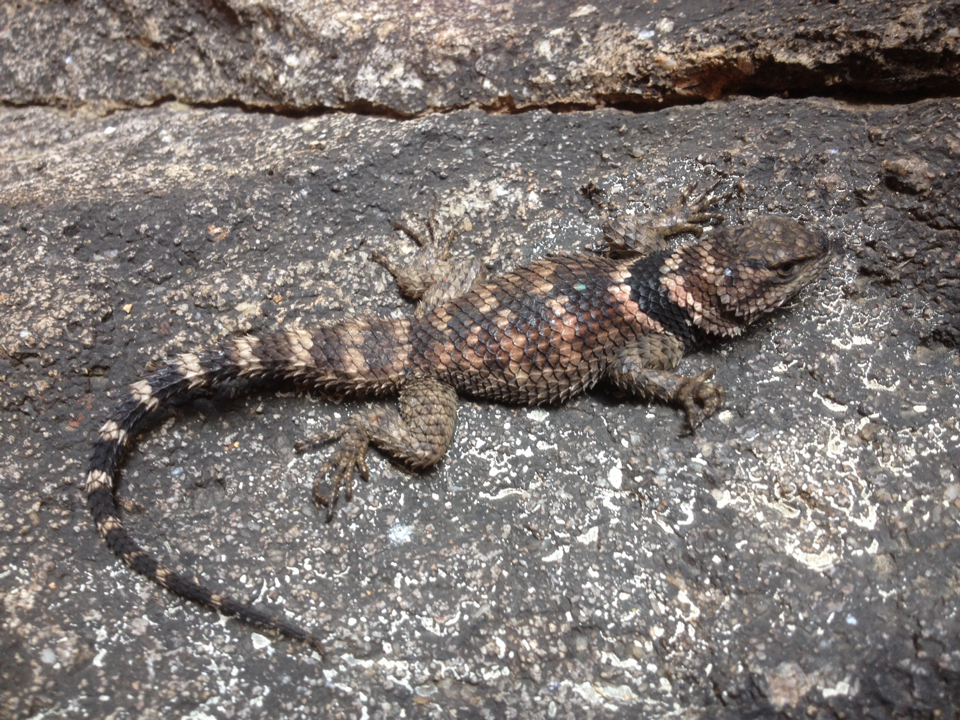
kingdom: Animalia
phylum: Chordata
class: Squamata
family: Phrynosomatidae
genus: Sceloporus
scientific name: Sceloporus poinsettii
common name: Crevice spiny lizard
